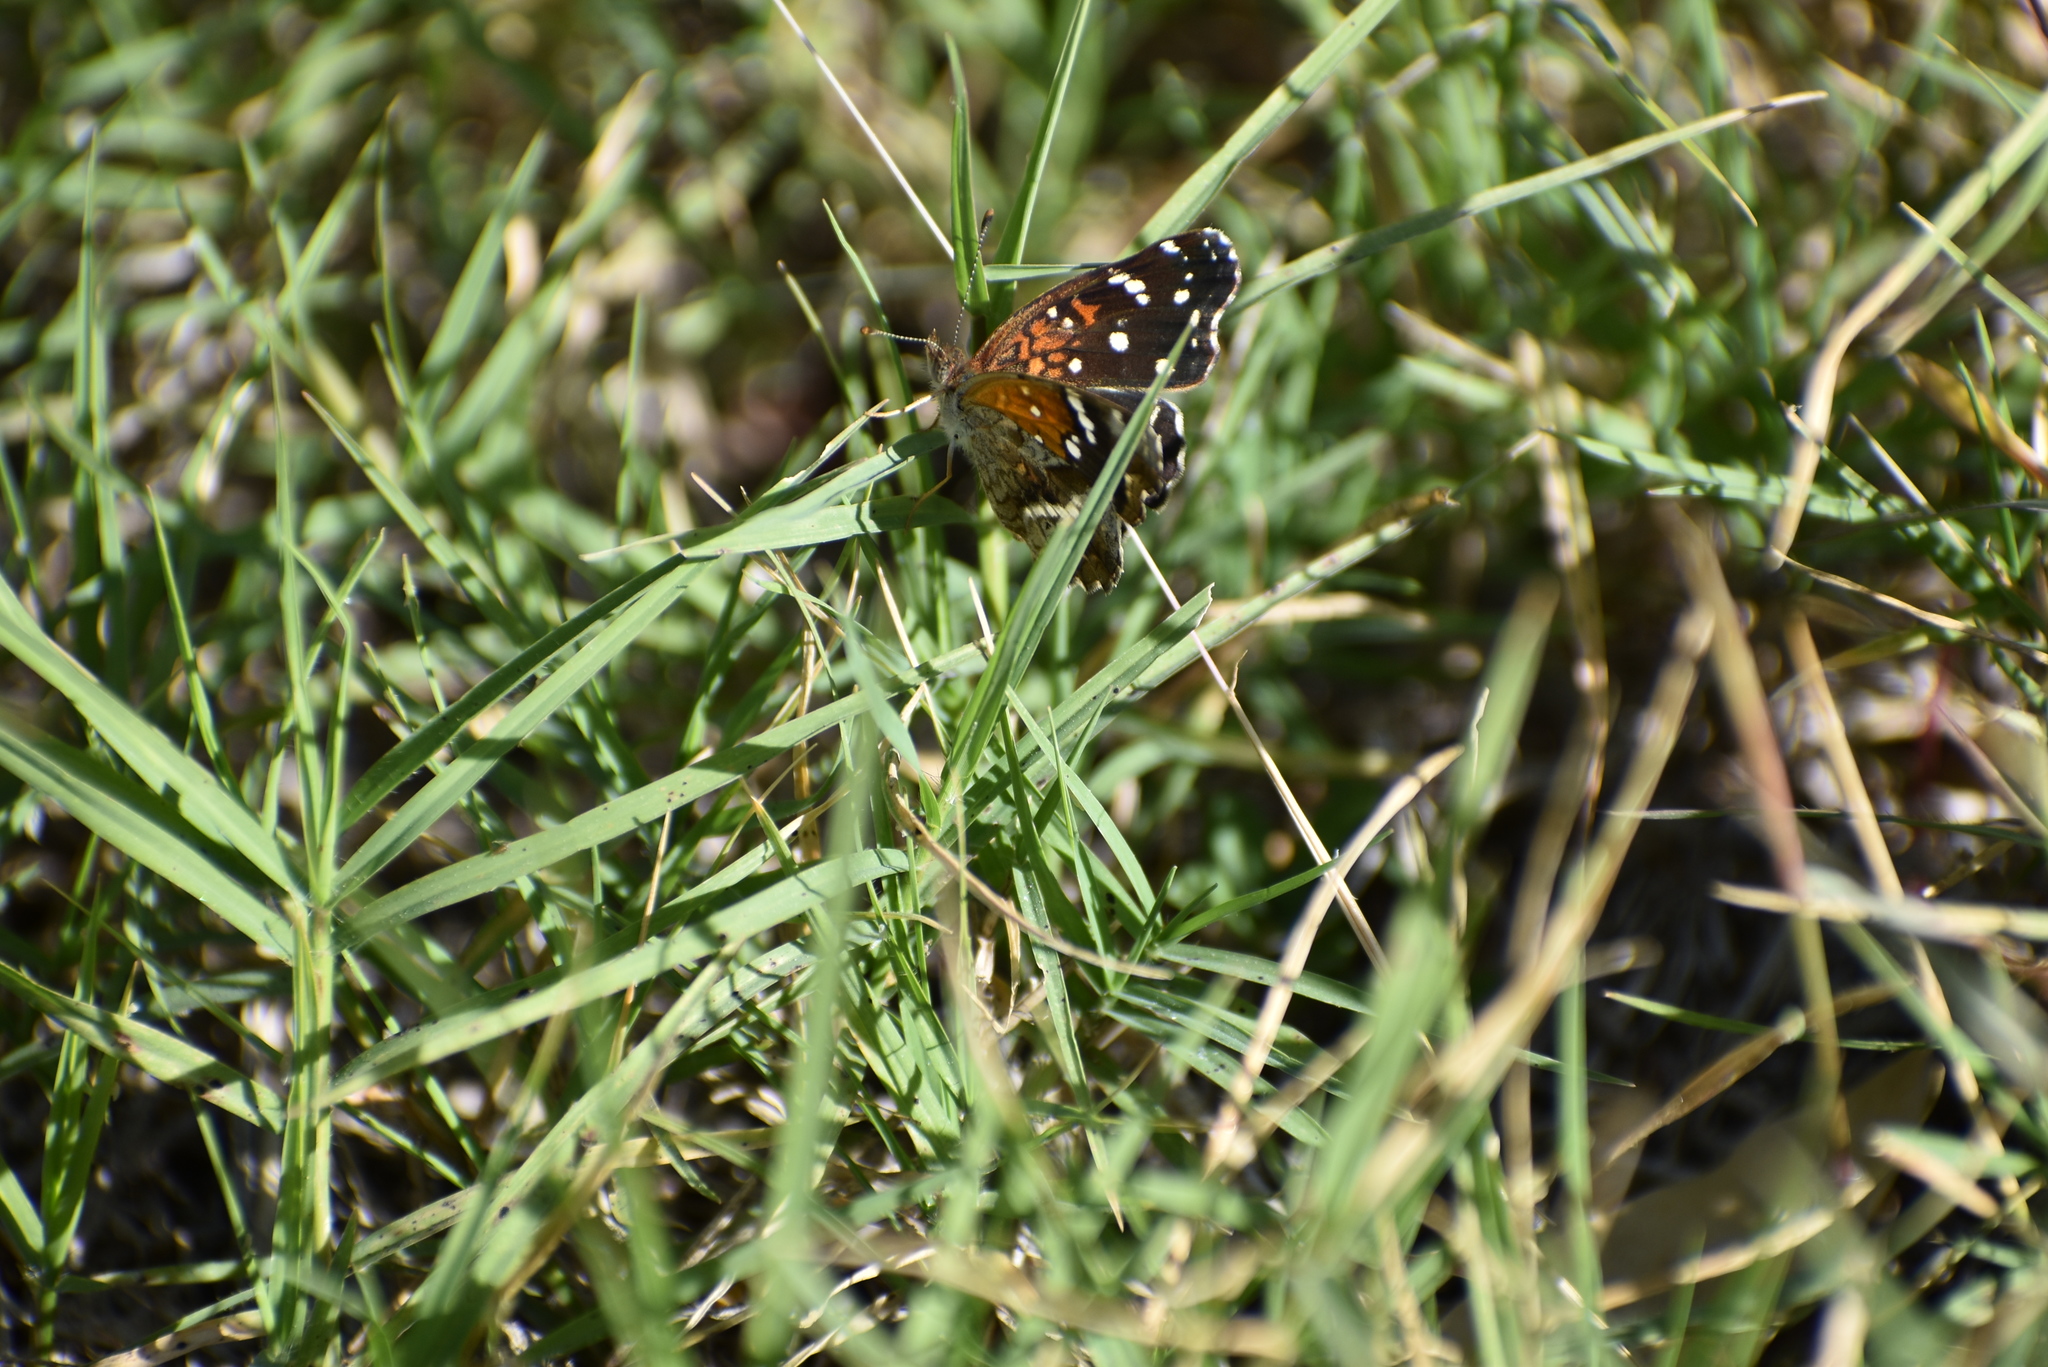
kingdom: Animalia
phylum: Arthropoda
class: Insecta
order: Lepidoptera
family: Nymphalidae
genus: Anthanassa
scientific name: Anthanassa texana
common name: Texan crescent
